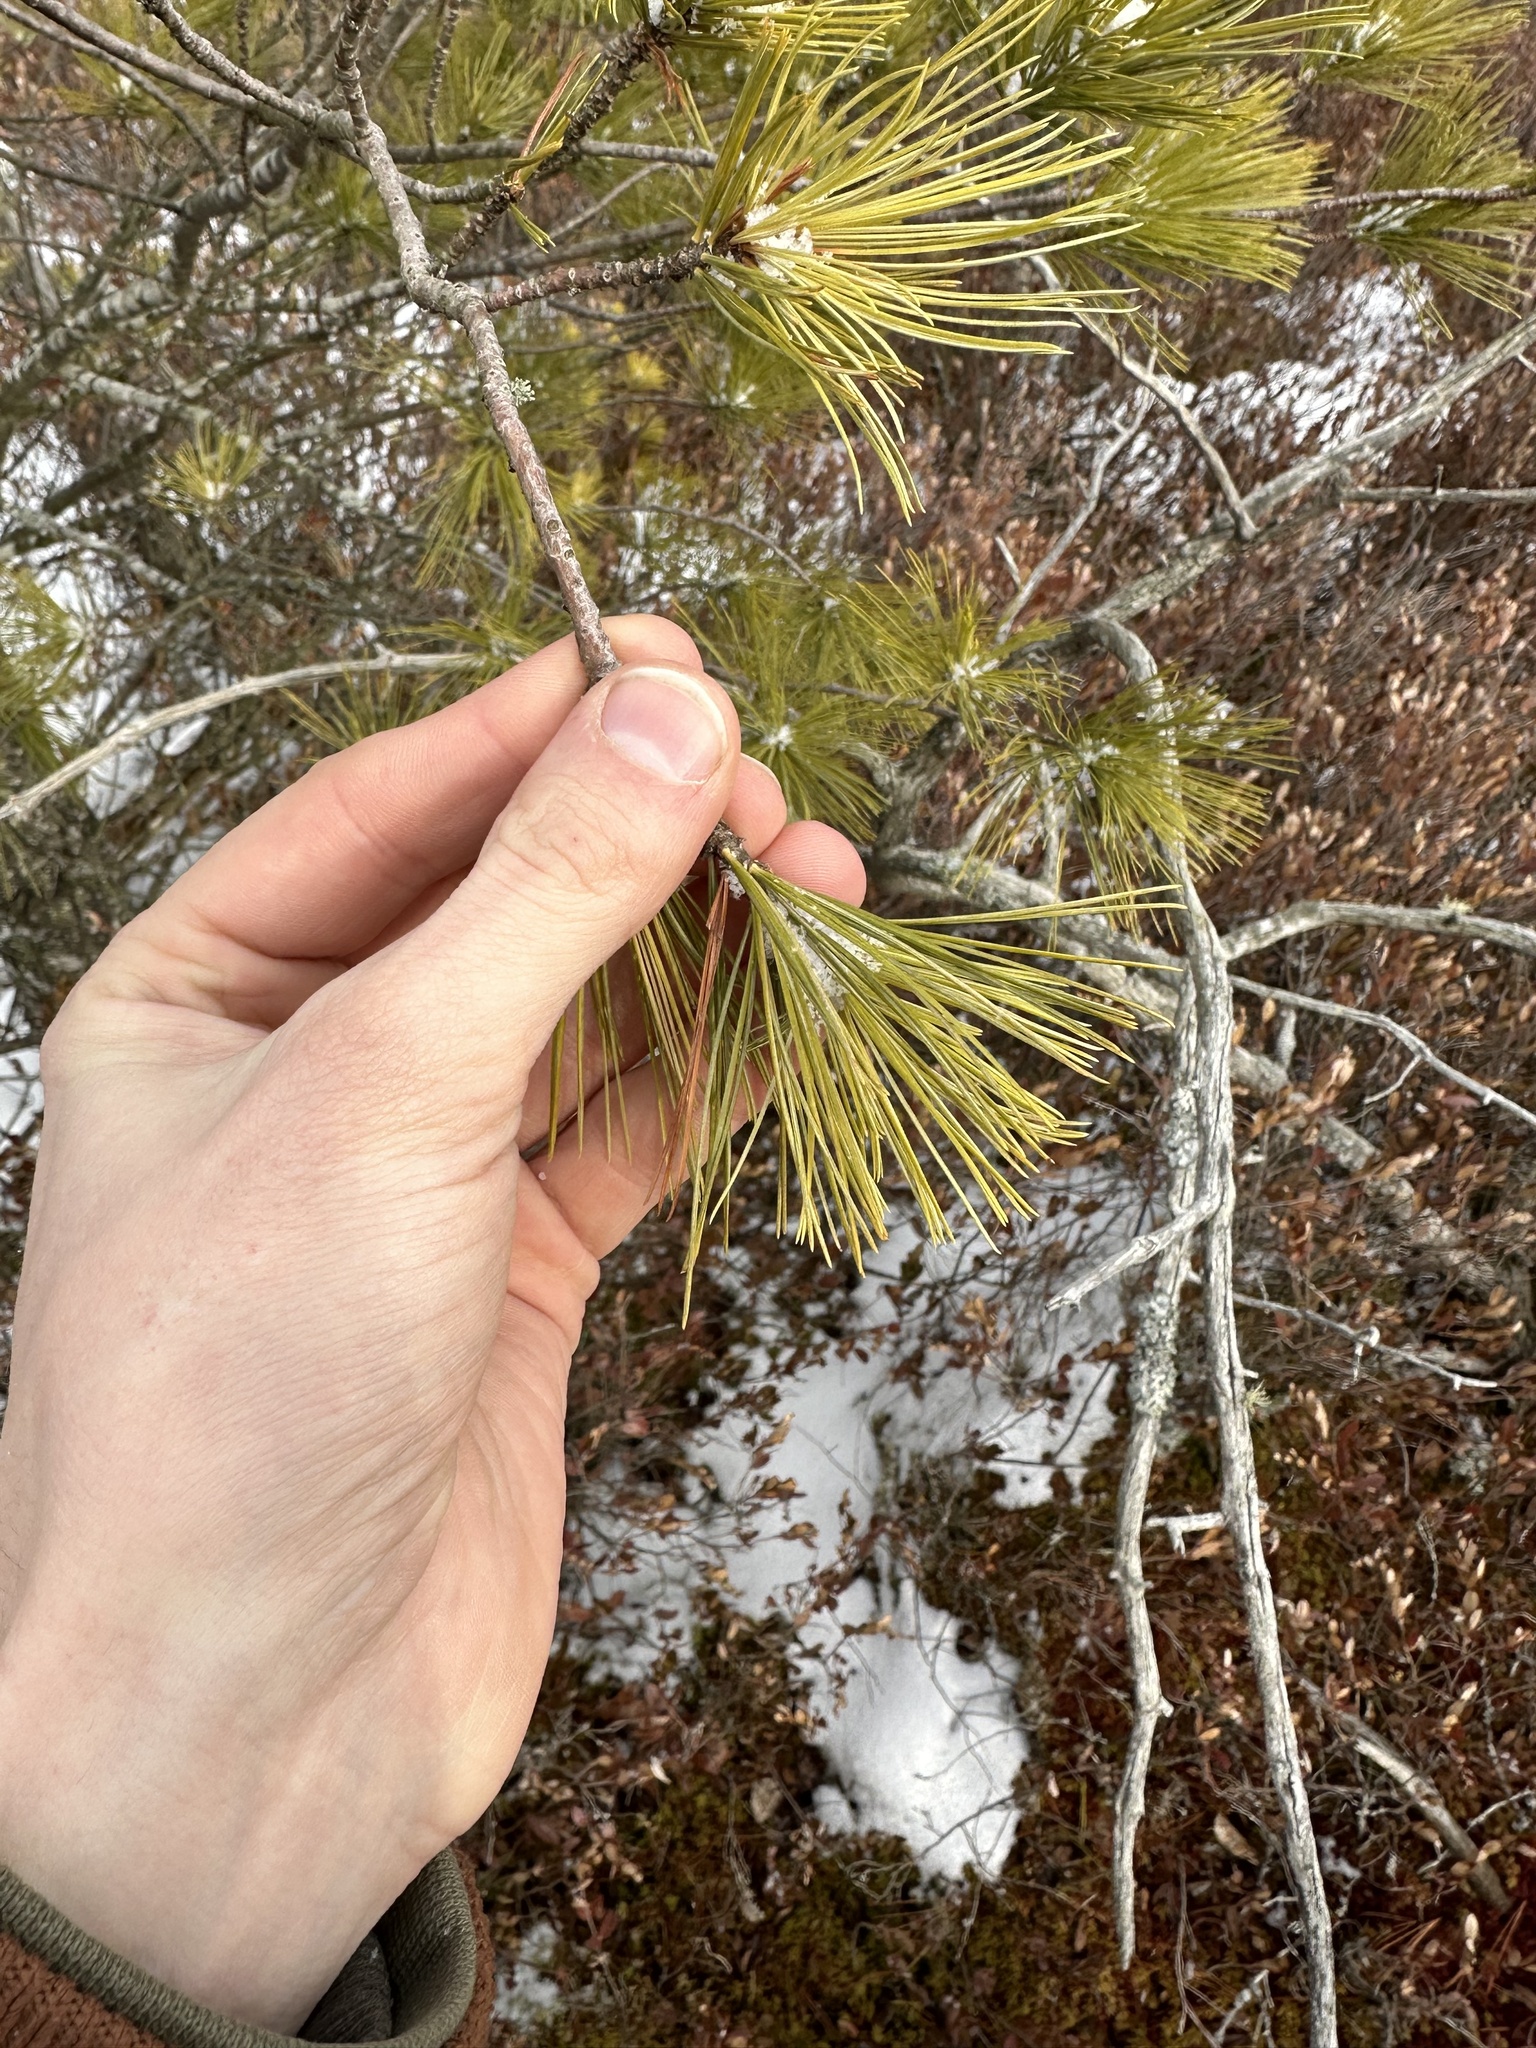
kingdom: Plantae
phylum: Tracheophyta
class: Pinopsida
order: Pinales
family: Pinaceae
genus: Pinus
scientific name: Pinus strobus
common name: Weymouth pine
